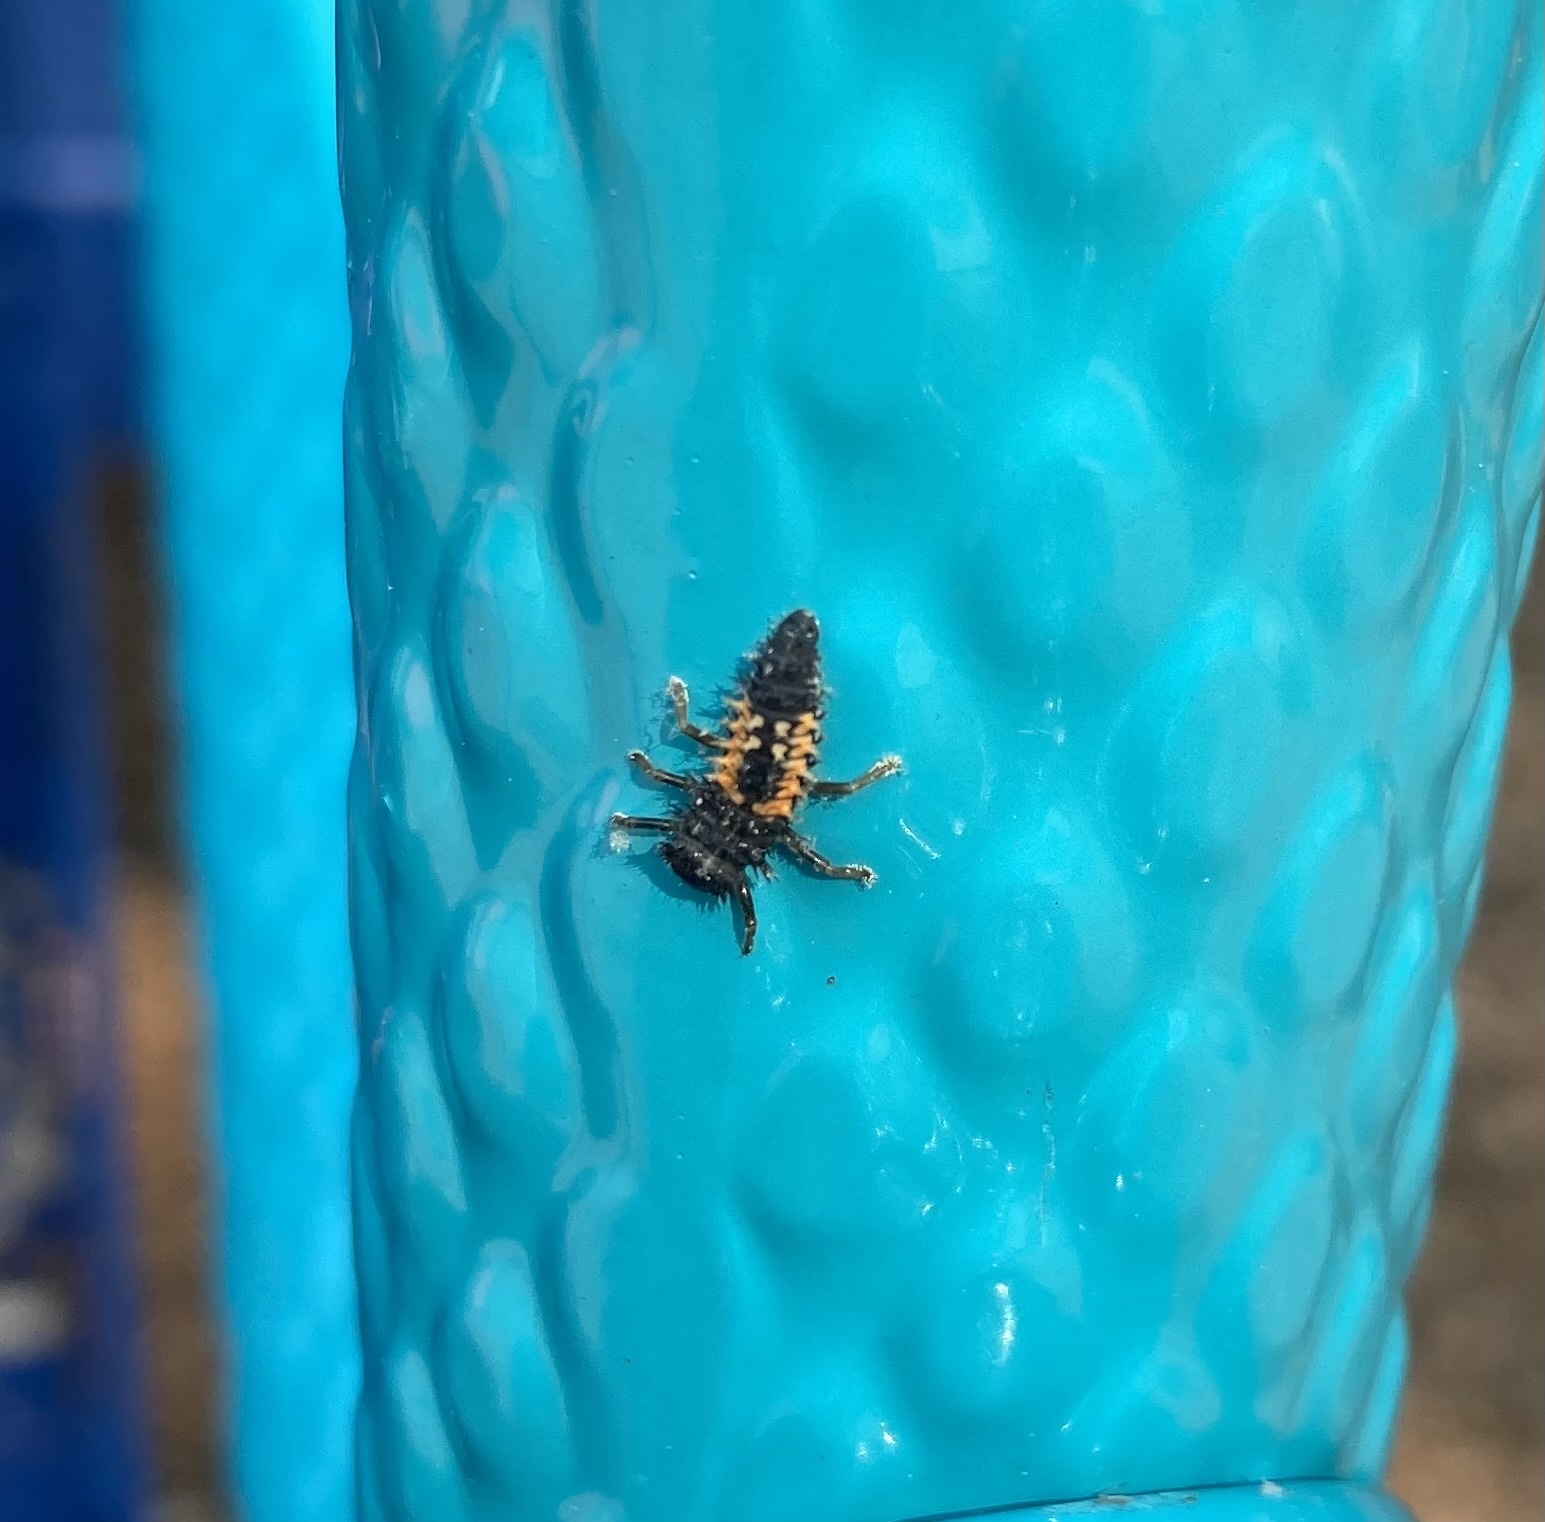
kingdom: Animalia
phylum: Arthropoda
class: Insecta
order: Coleoptera
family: Coccinellidae
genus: Harmonia
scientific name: Harmonia axyridis
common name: Harlequin ladybird
